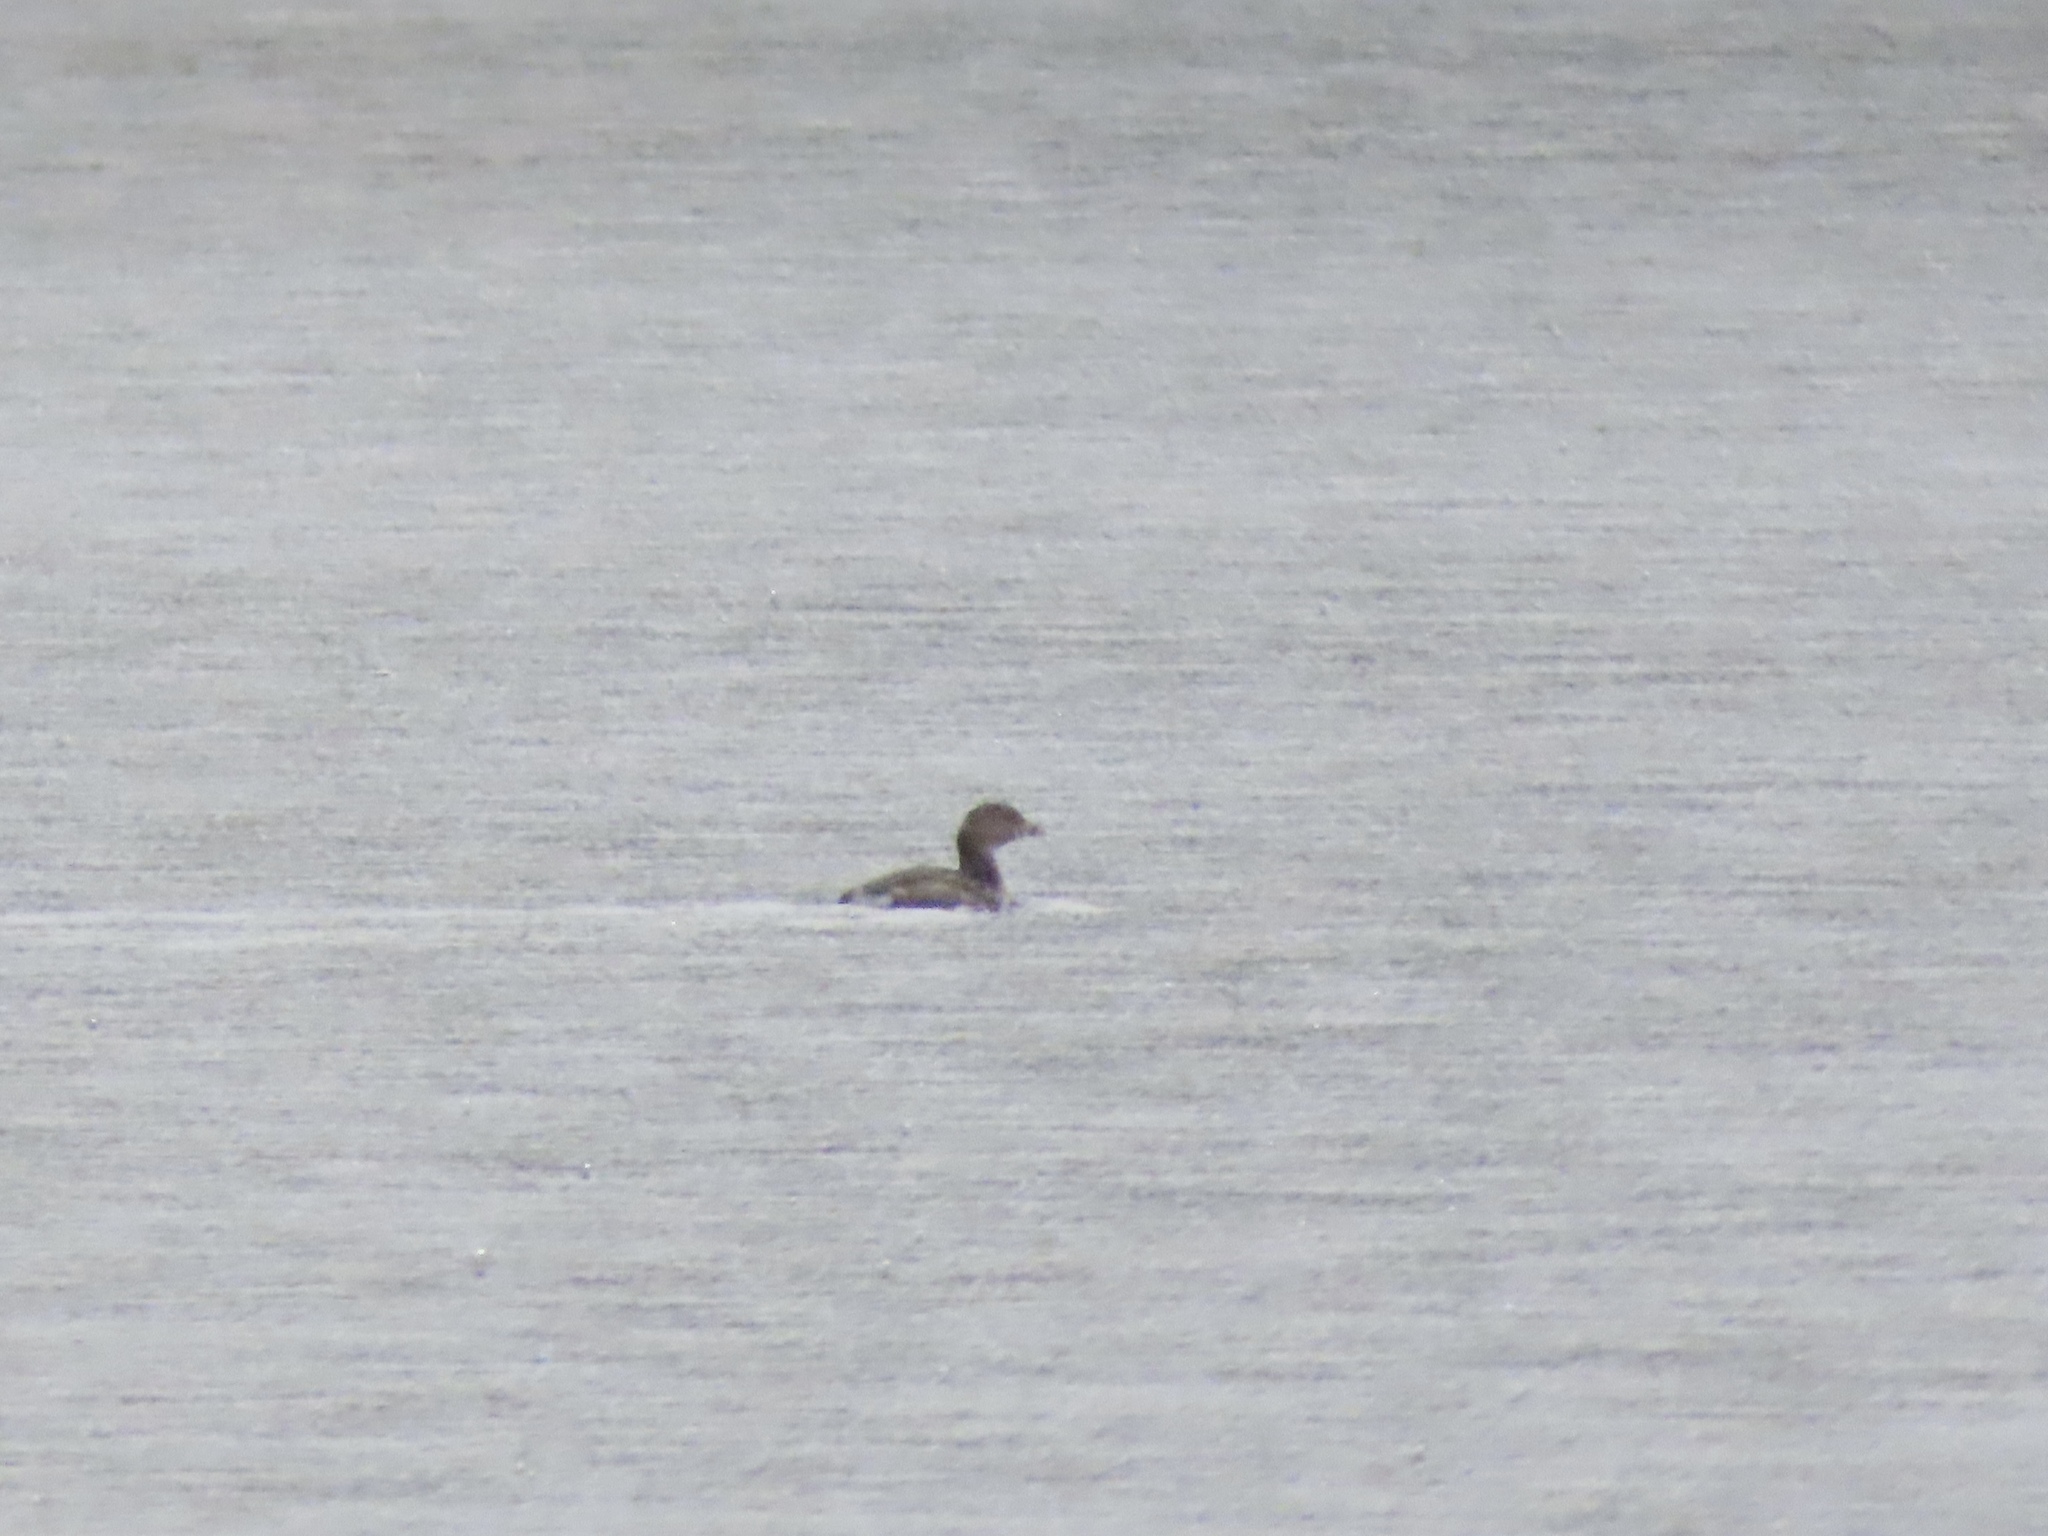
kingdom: Animalia
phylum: Chordata
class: Aves
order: Podicipediformes
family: Podicipedidae
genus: Podilymbus
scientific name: Podilymbus podiceps
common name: Pied-billed grebe
